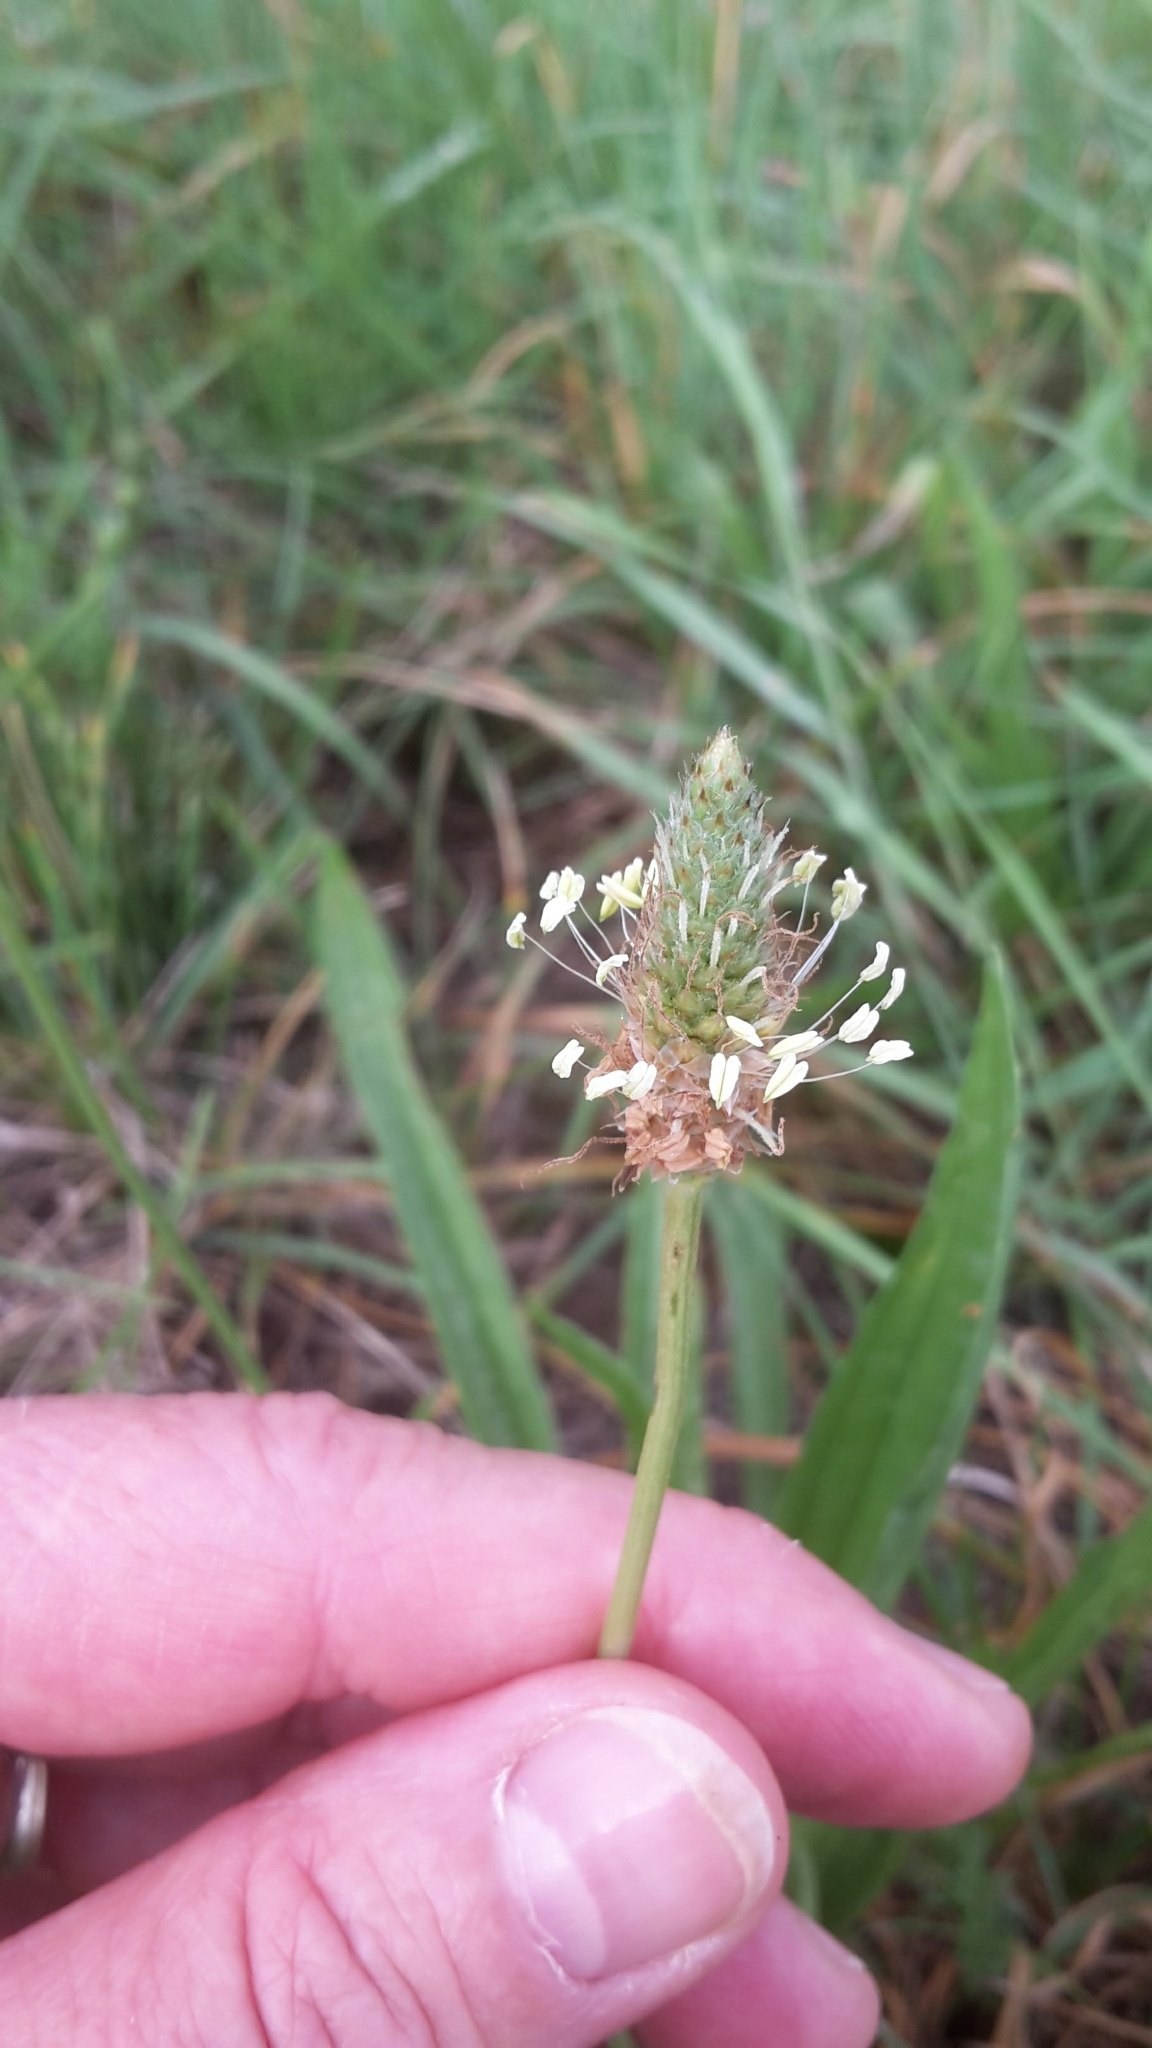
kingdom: Plantae
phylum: Tracheophyta
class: Magnoliopsida
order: Lamiales
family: Plantaginaceae
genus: Plantago
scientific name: Plantago lanceolata
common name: Ribwort plantain
